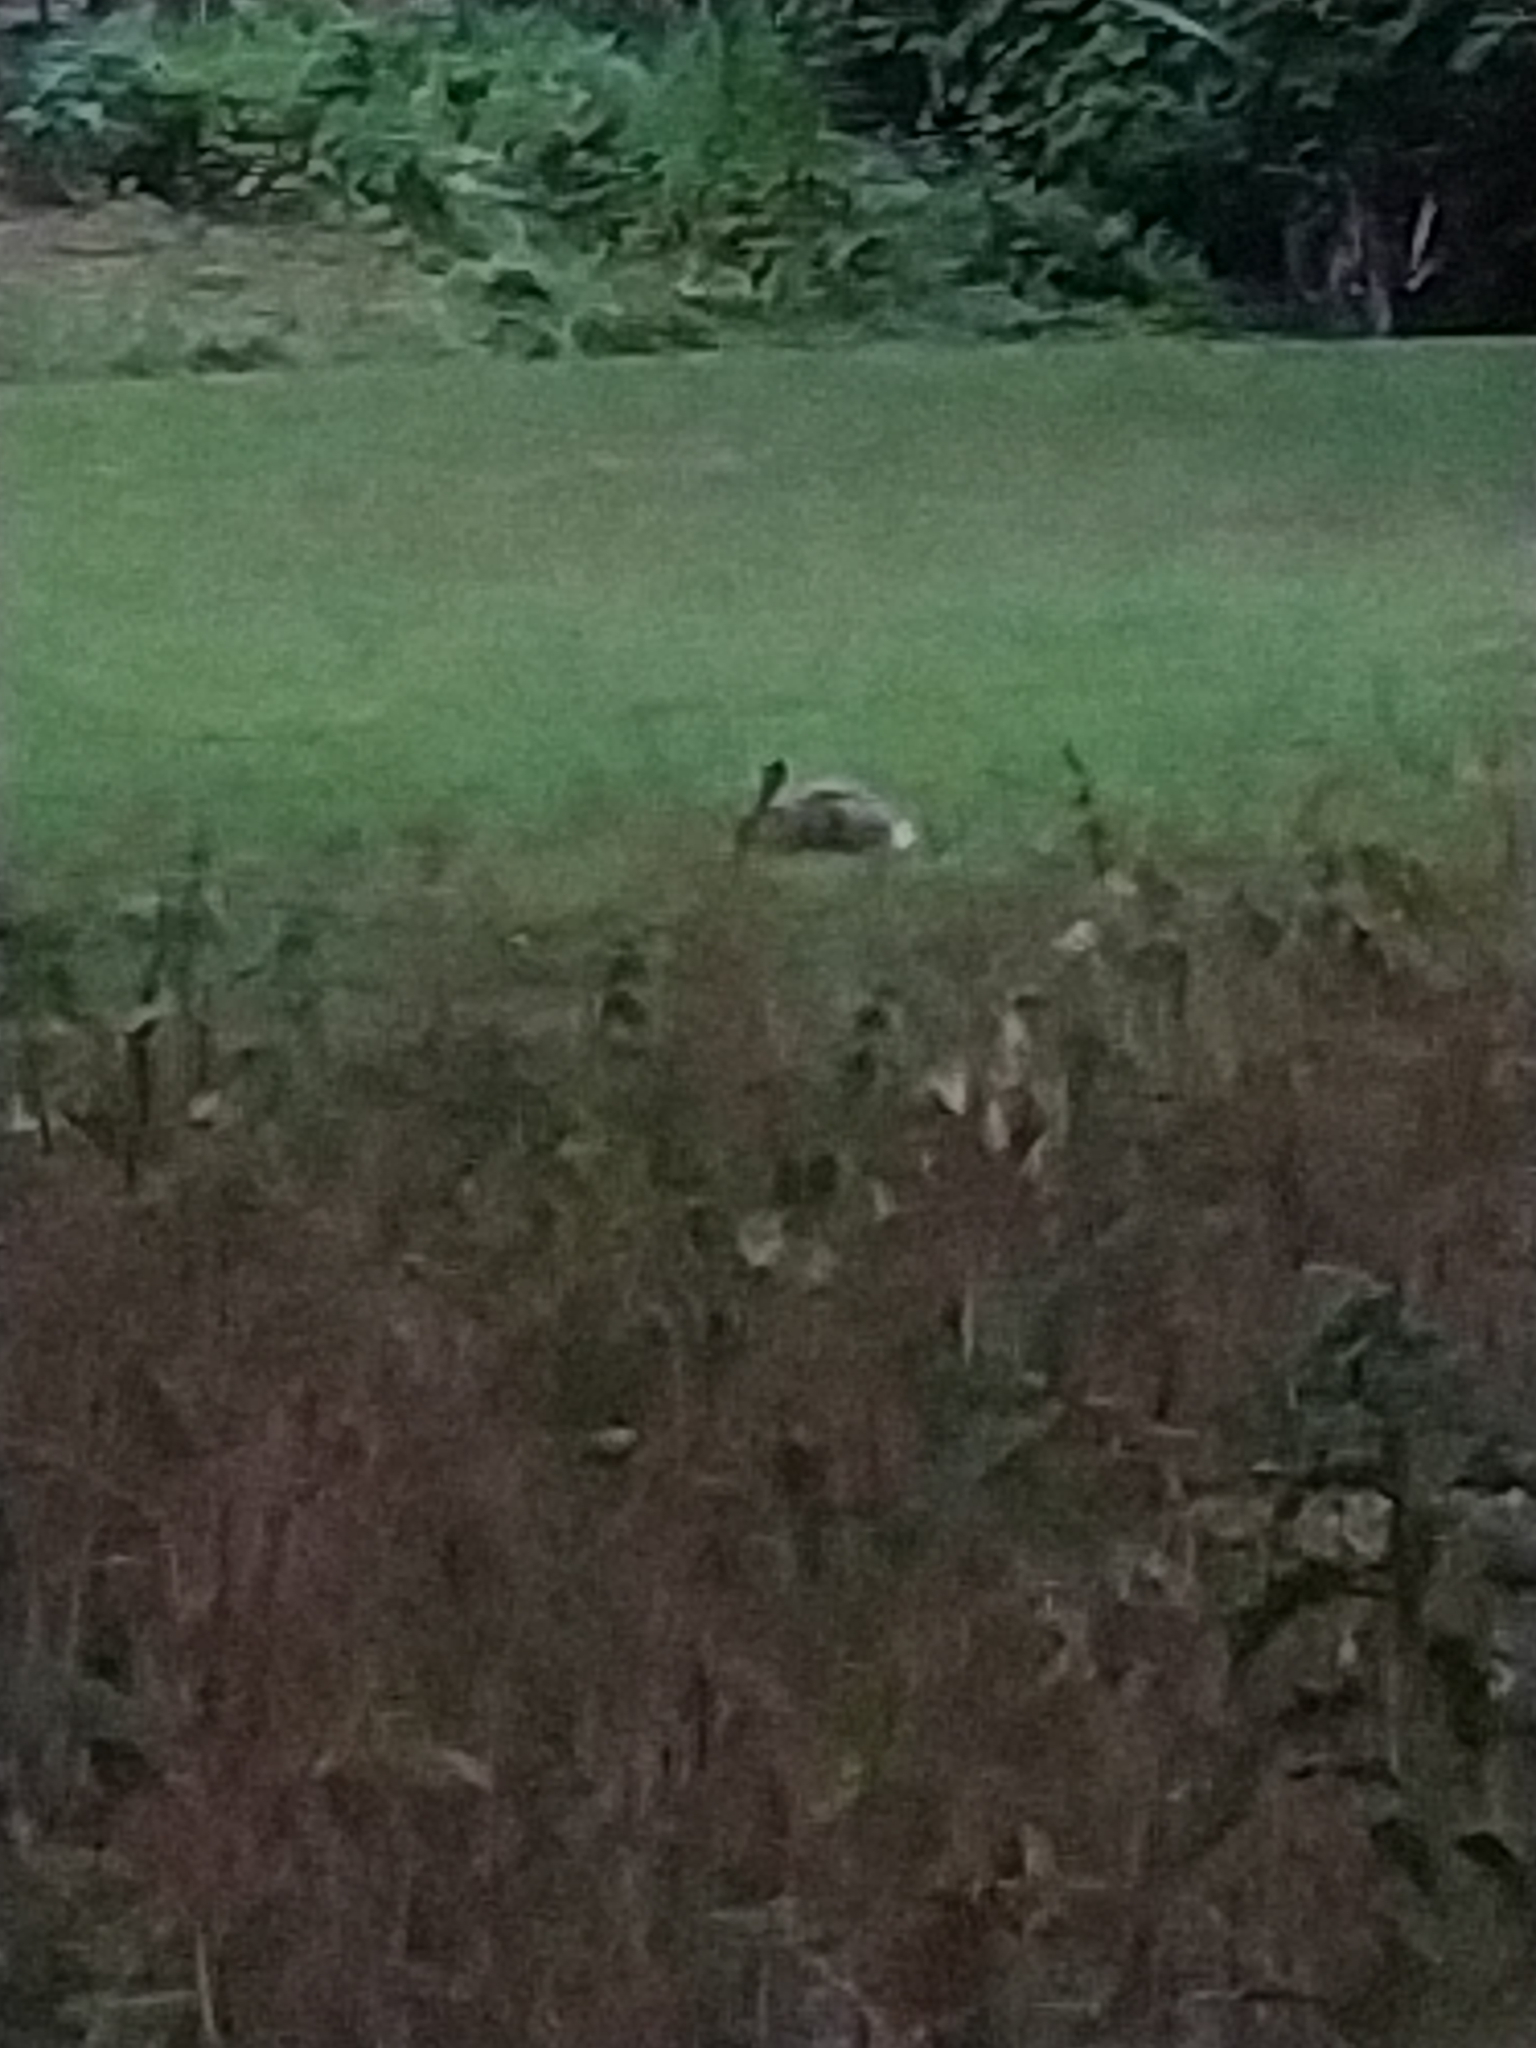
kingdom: Animalia
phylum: Chordata
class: Mammalia
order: Lagomorpha
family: Leporidae
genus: Lepus
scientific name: Lepus europaeus
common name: European hare
